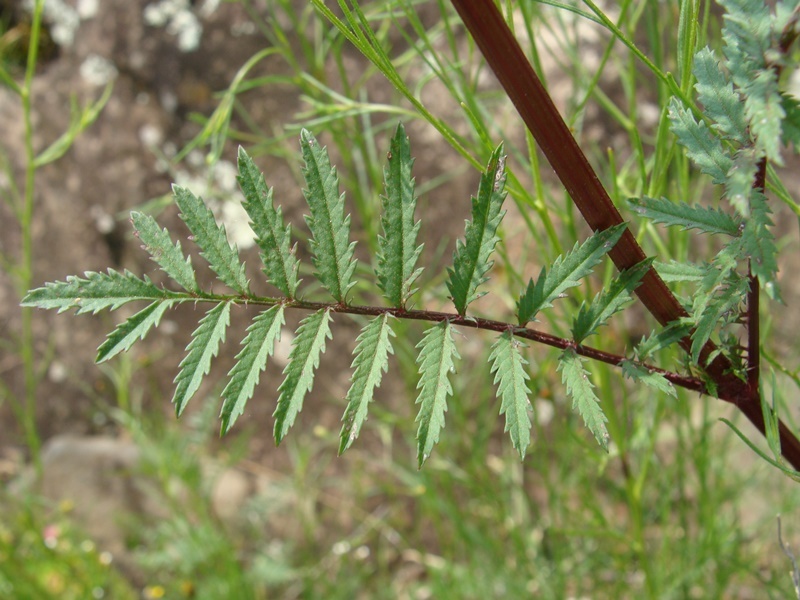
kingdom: Plantae
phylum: Tracheophyta
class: Magnoliopsida
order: Asterales
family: Asteraceae
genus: Tagetes
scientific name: Tagetes lunulata
